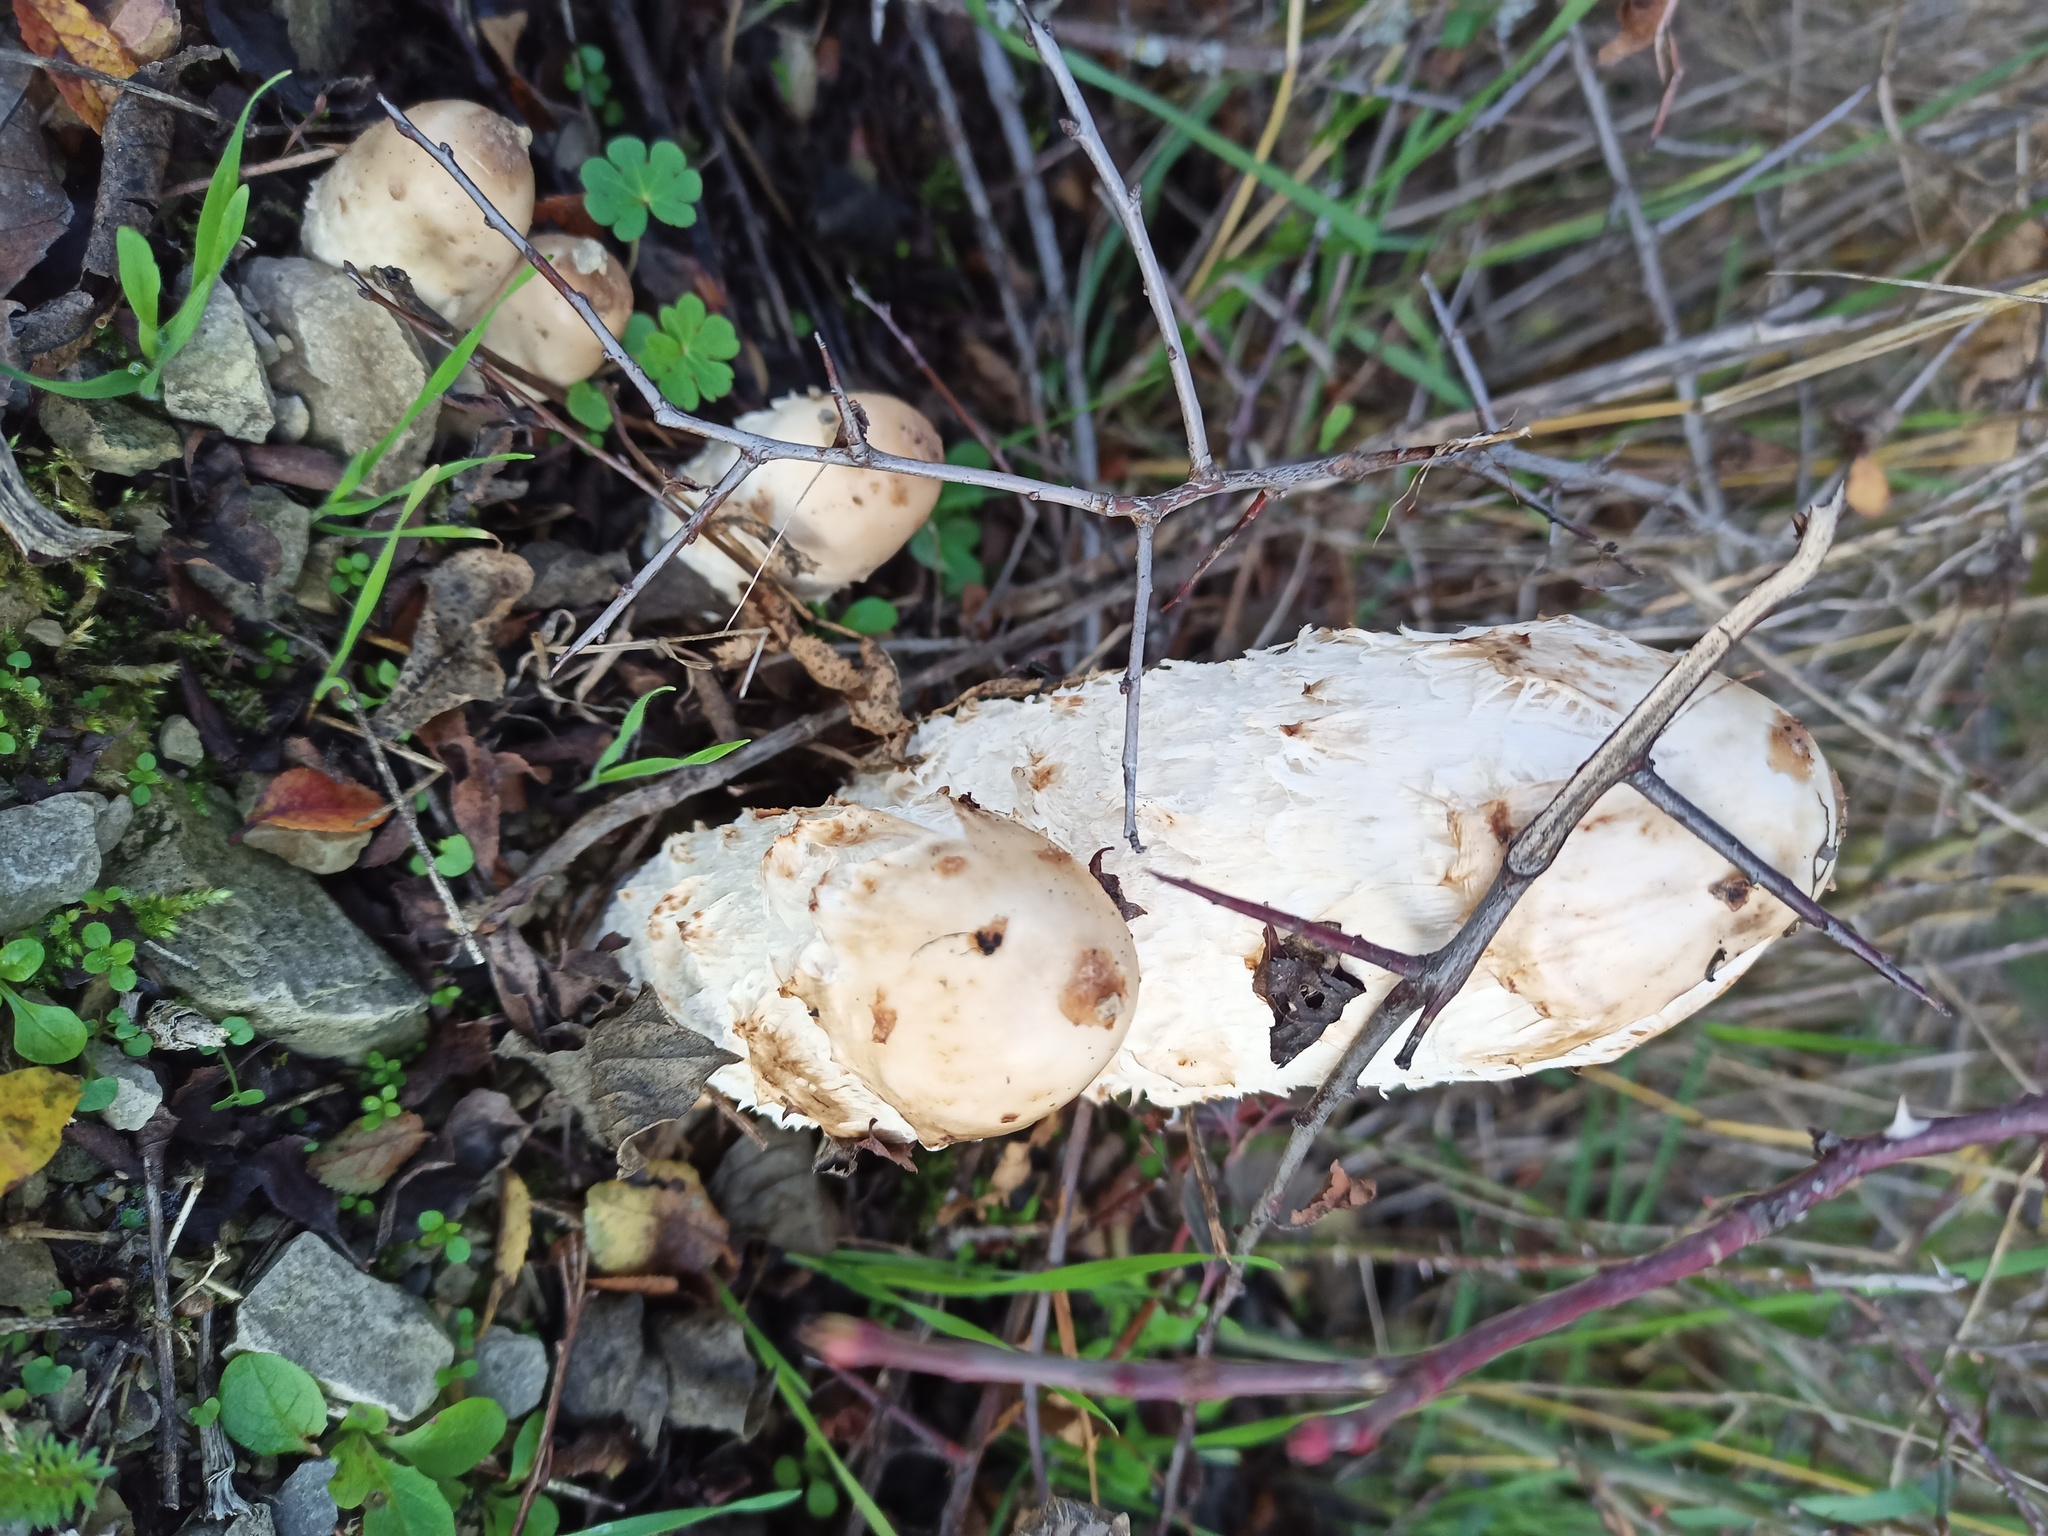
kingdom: Fungi
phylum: Basidiomycota
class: Agaricomycetes
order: Agaricales
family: Agaricaceae
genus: Coprinus
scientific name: Coprinus comatus
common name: Lawyer's wig
